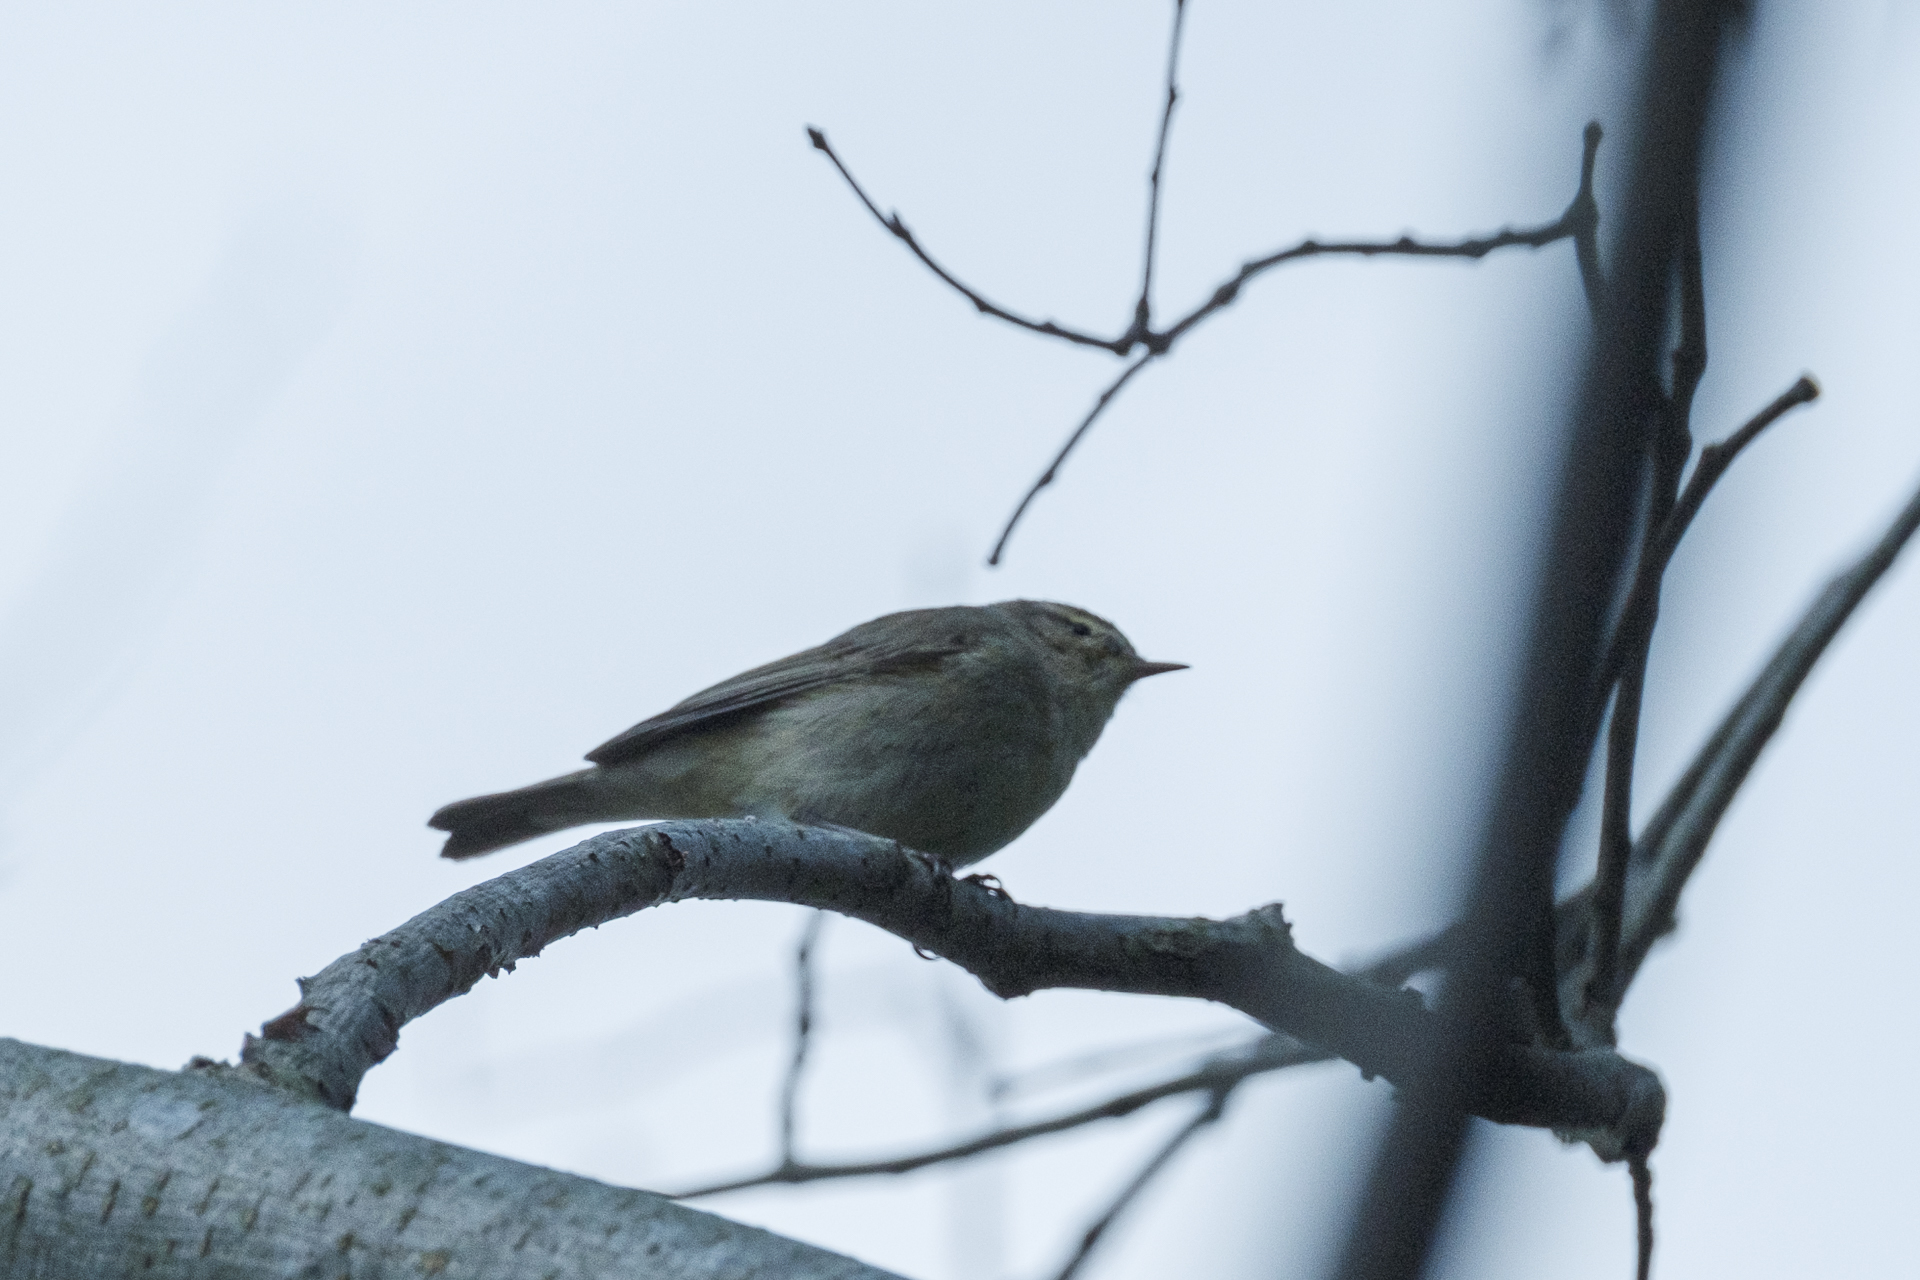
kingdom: Animalia
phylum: Chordata
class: Aves
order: Passeriformes
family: Phylloscopidae
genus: Phylloscopus
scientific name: Phylloscopus collybita
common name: Common chiffchaff
